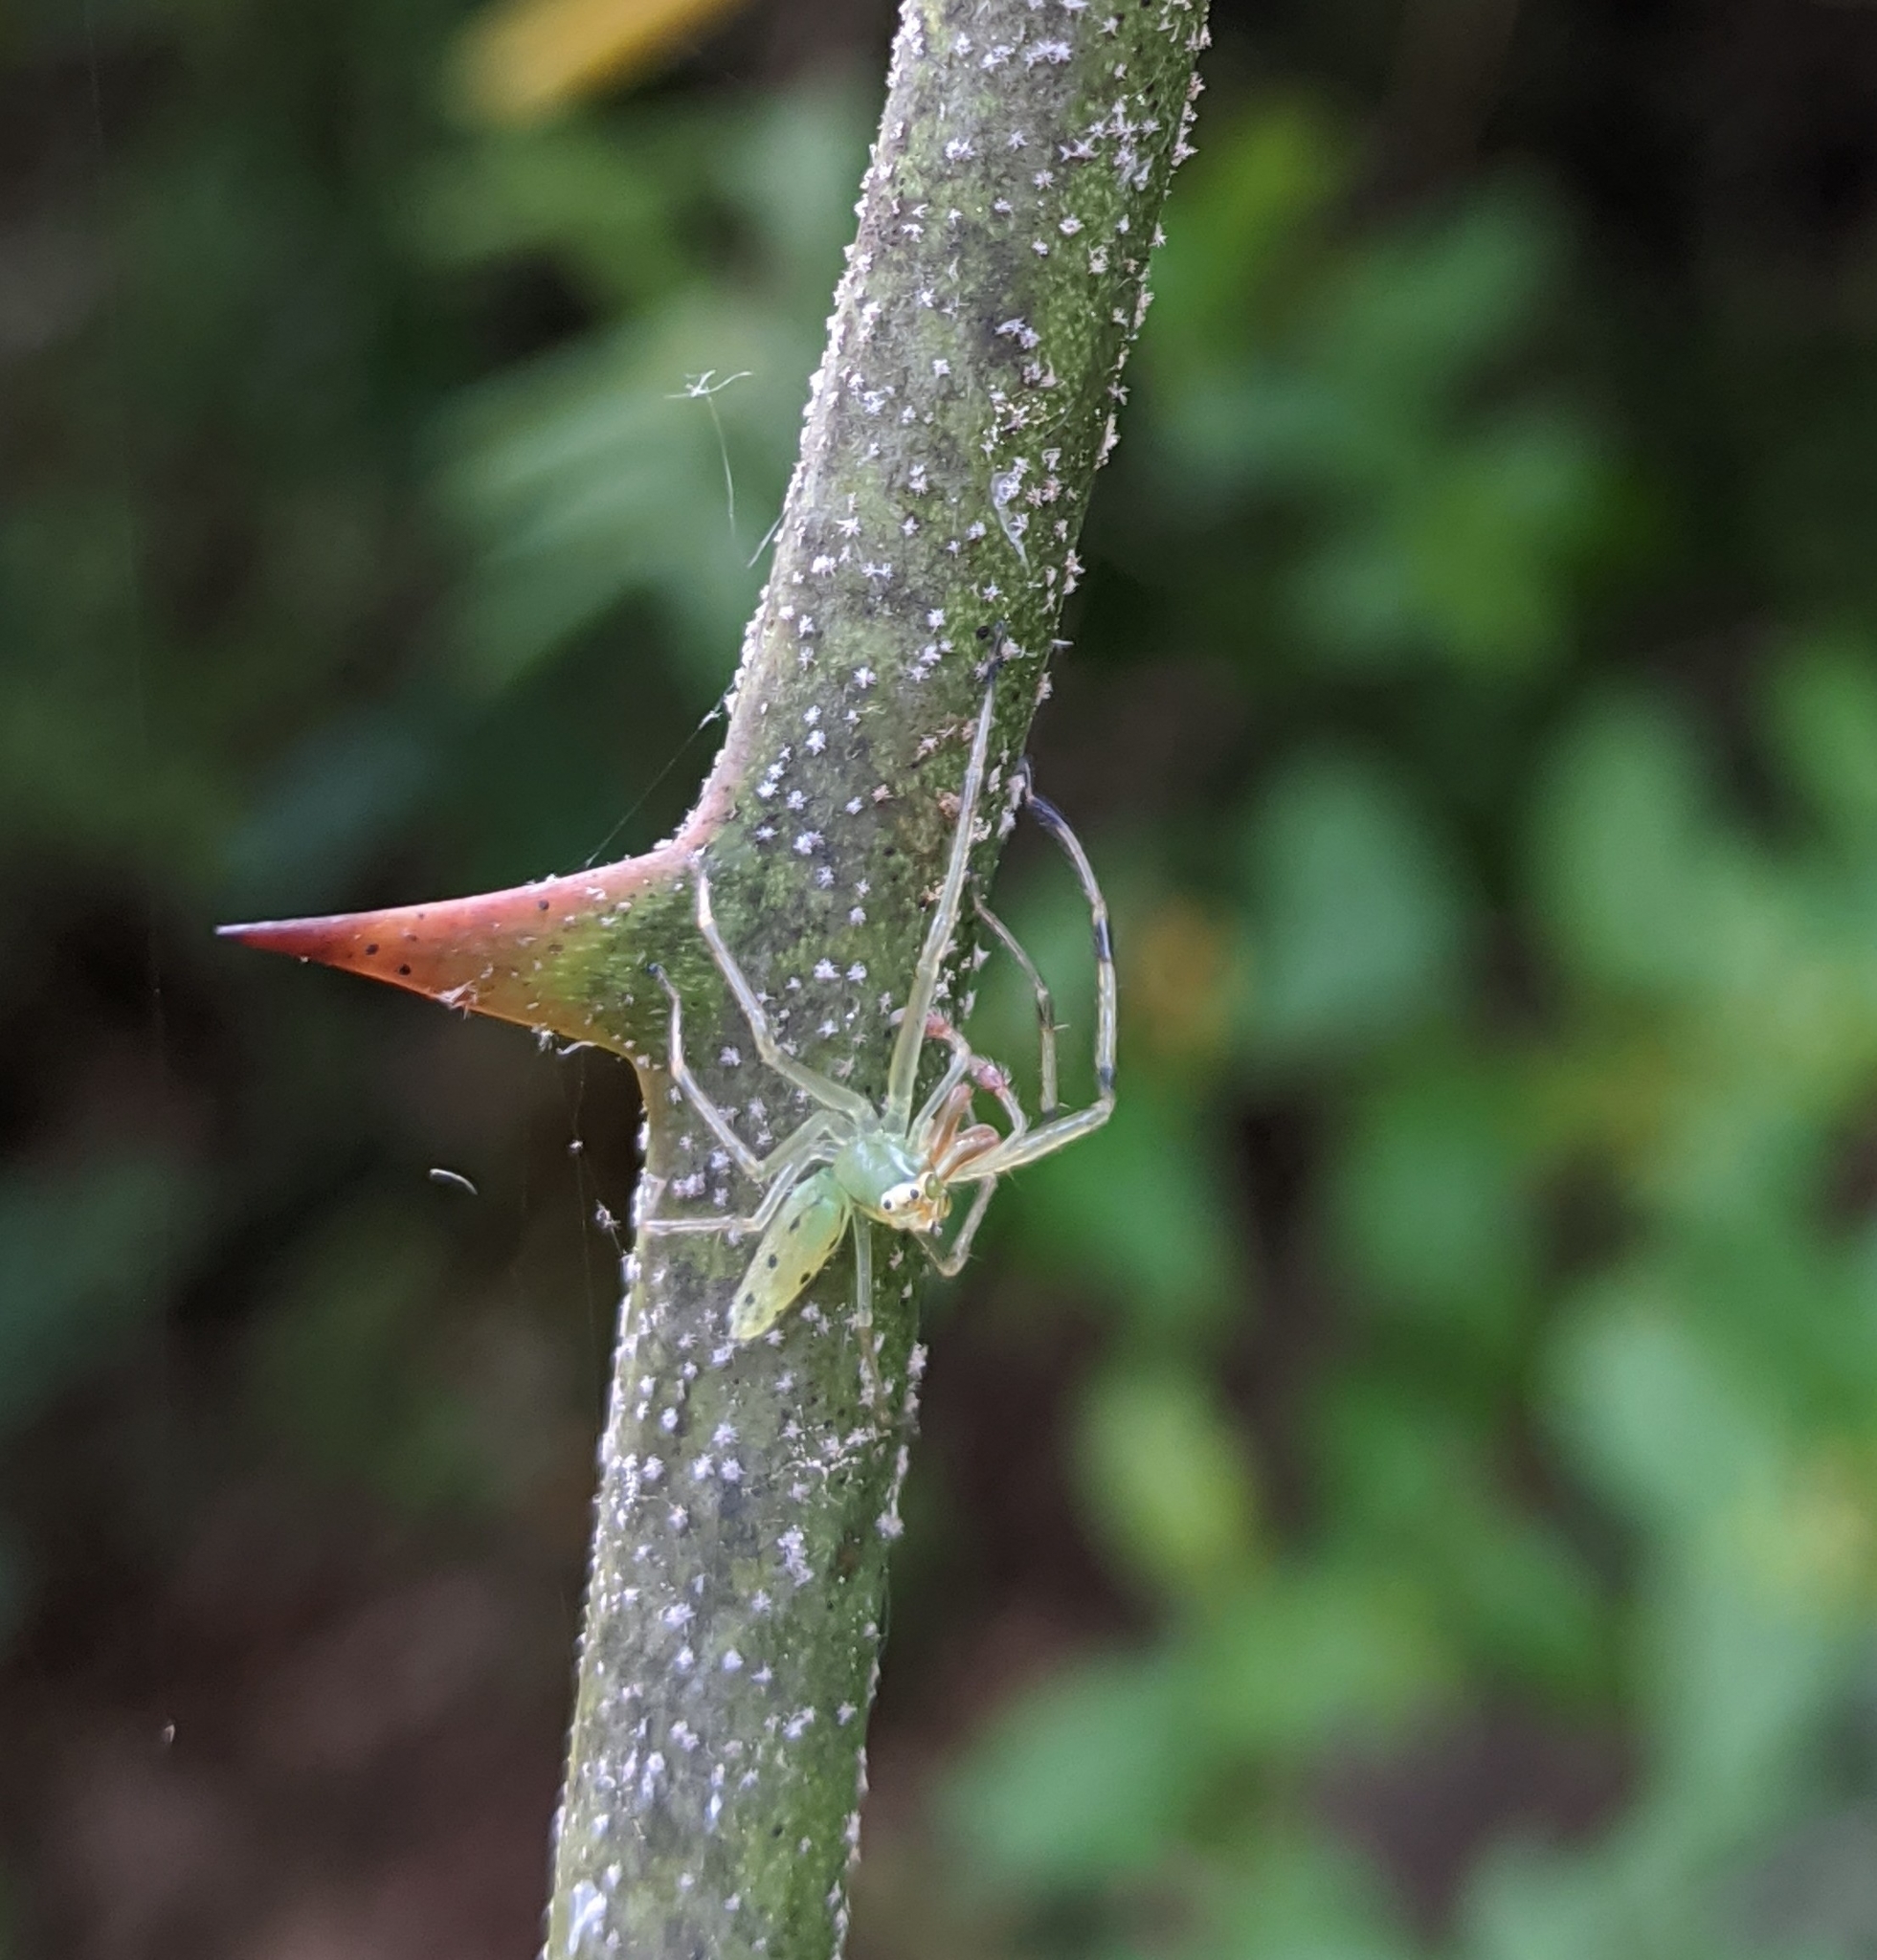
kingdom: Animalia
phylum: Arthropoda
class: Arachnida
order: Araneae
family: Salticidae
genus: Lyssomanes
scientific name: Lyssomanes viridis
